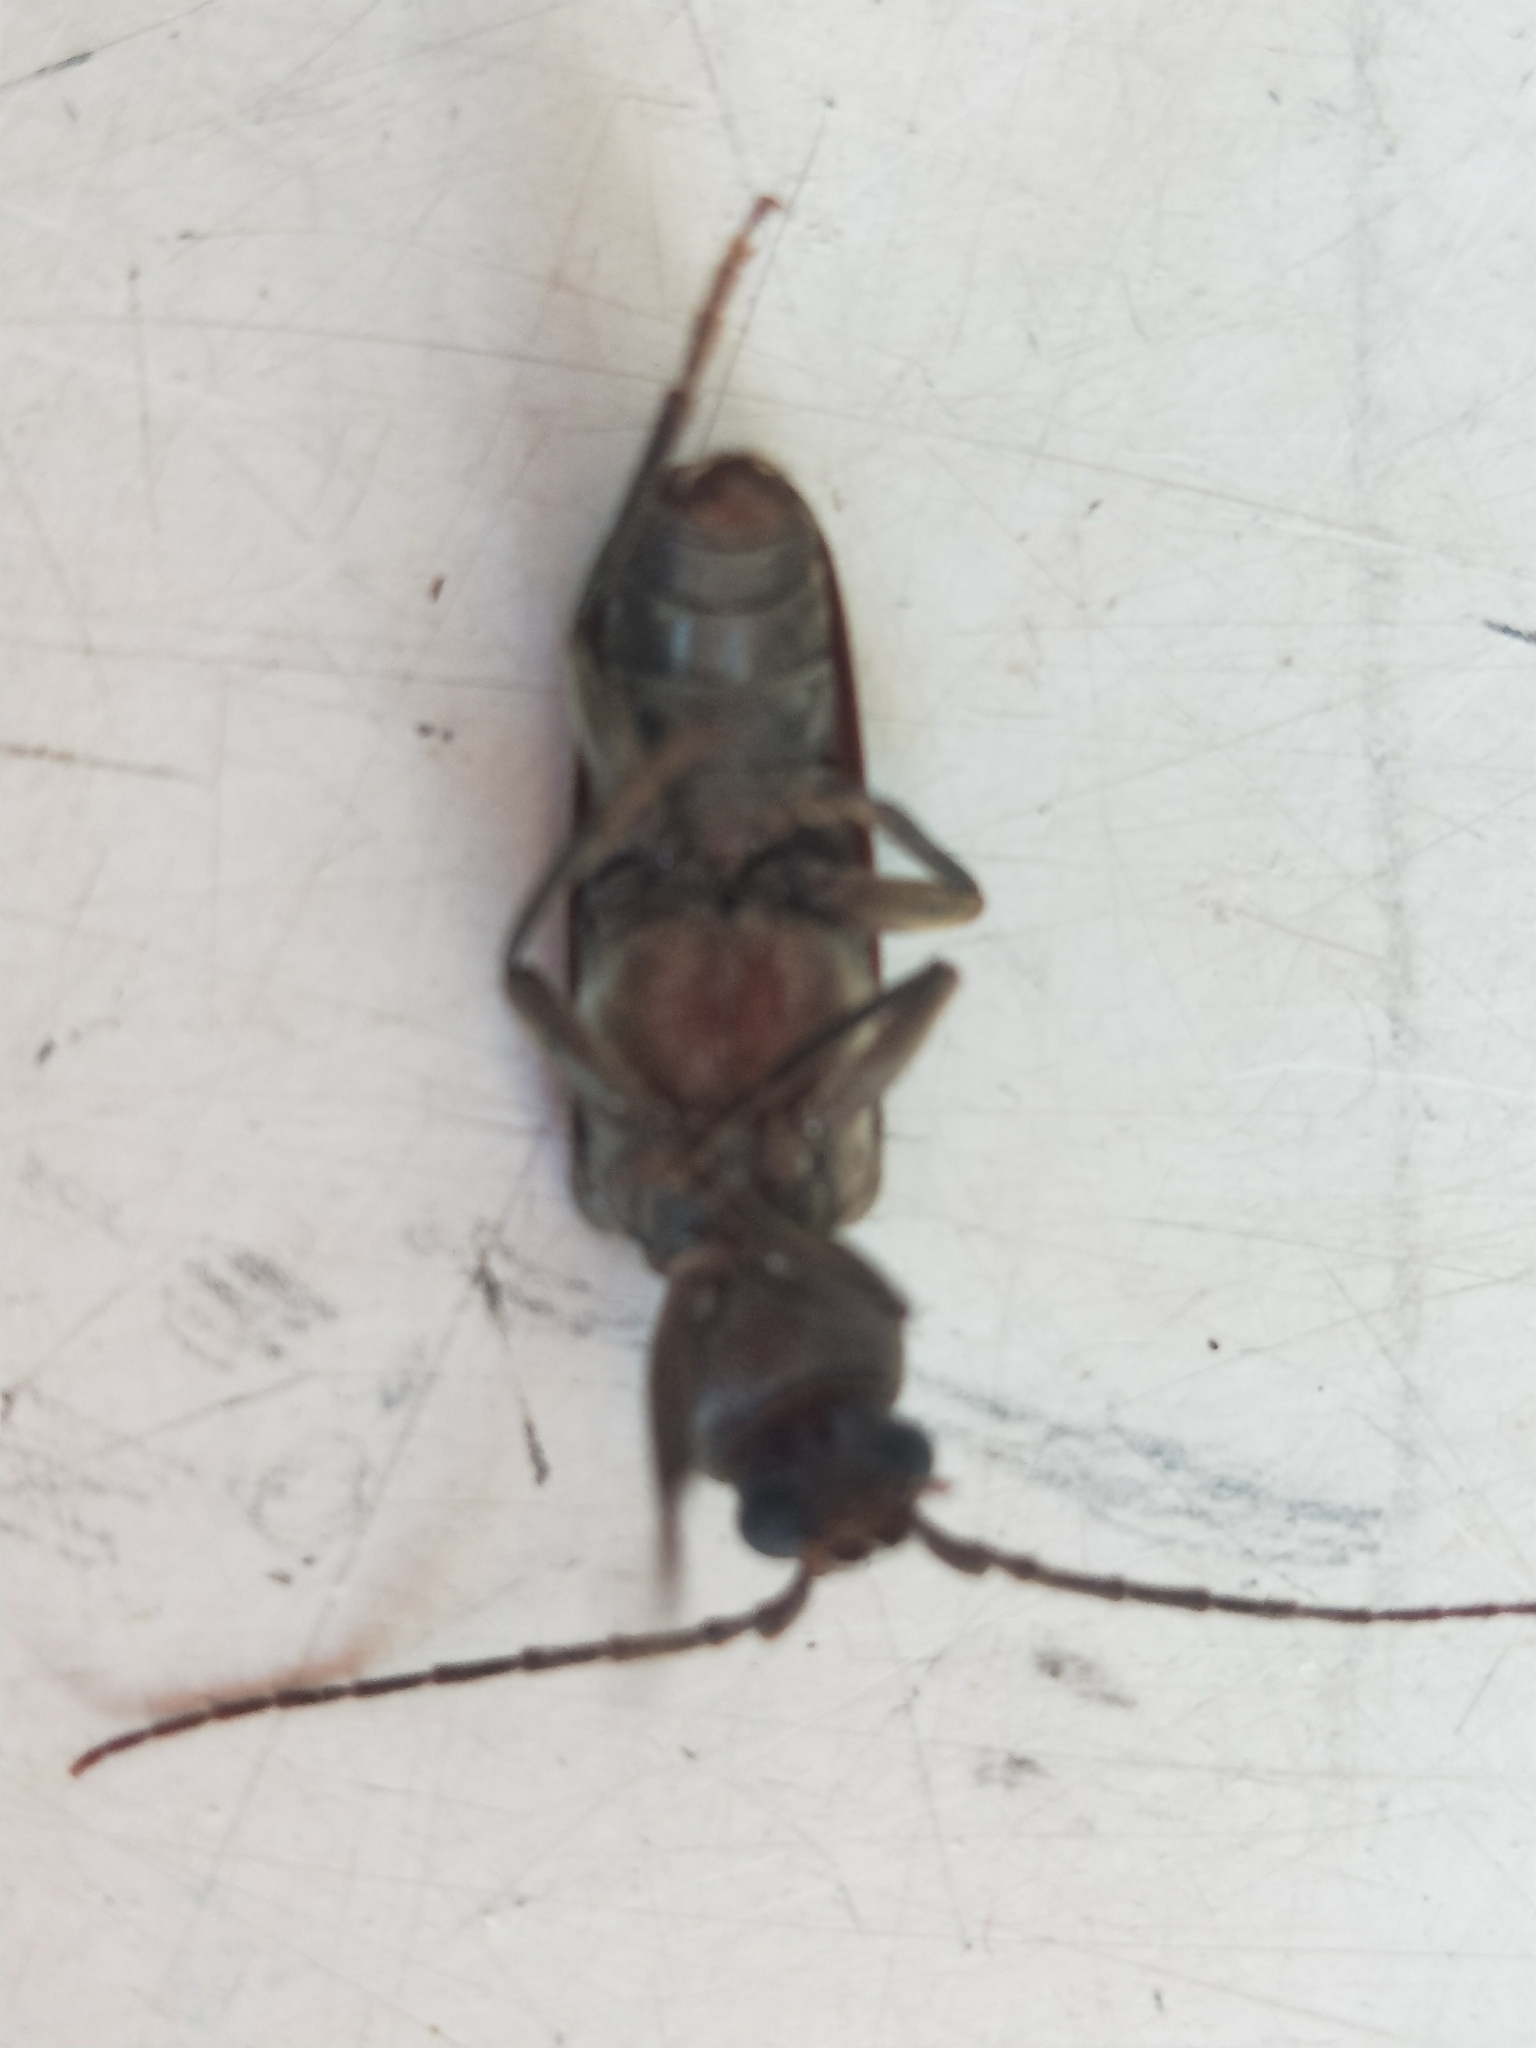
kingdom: Animalia
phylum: Arthropoda
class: Insecta
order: Coleoptera
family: Cerambycidae
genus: Arhopalus
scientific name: Arhopalus ferus
